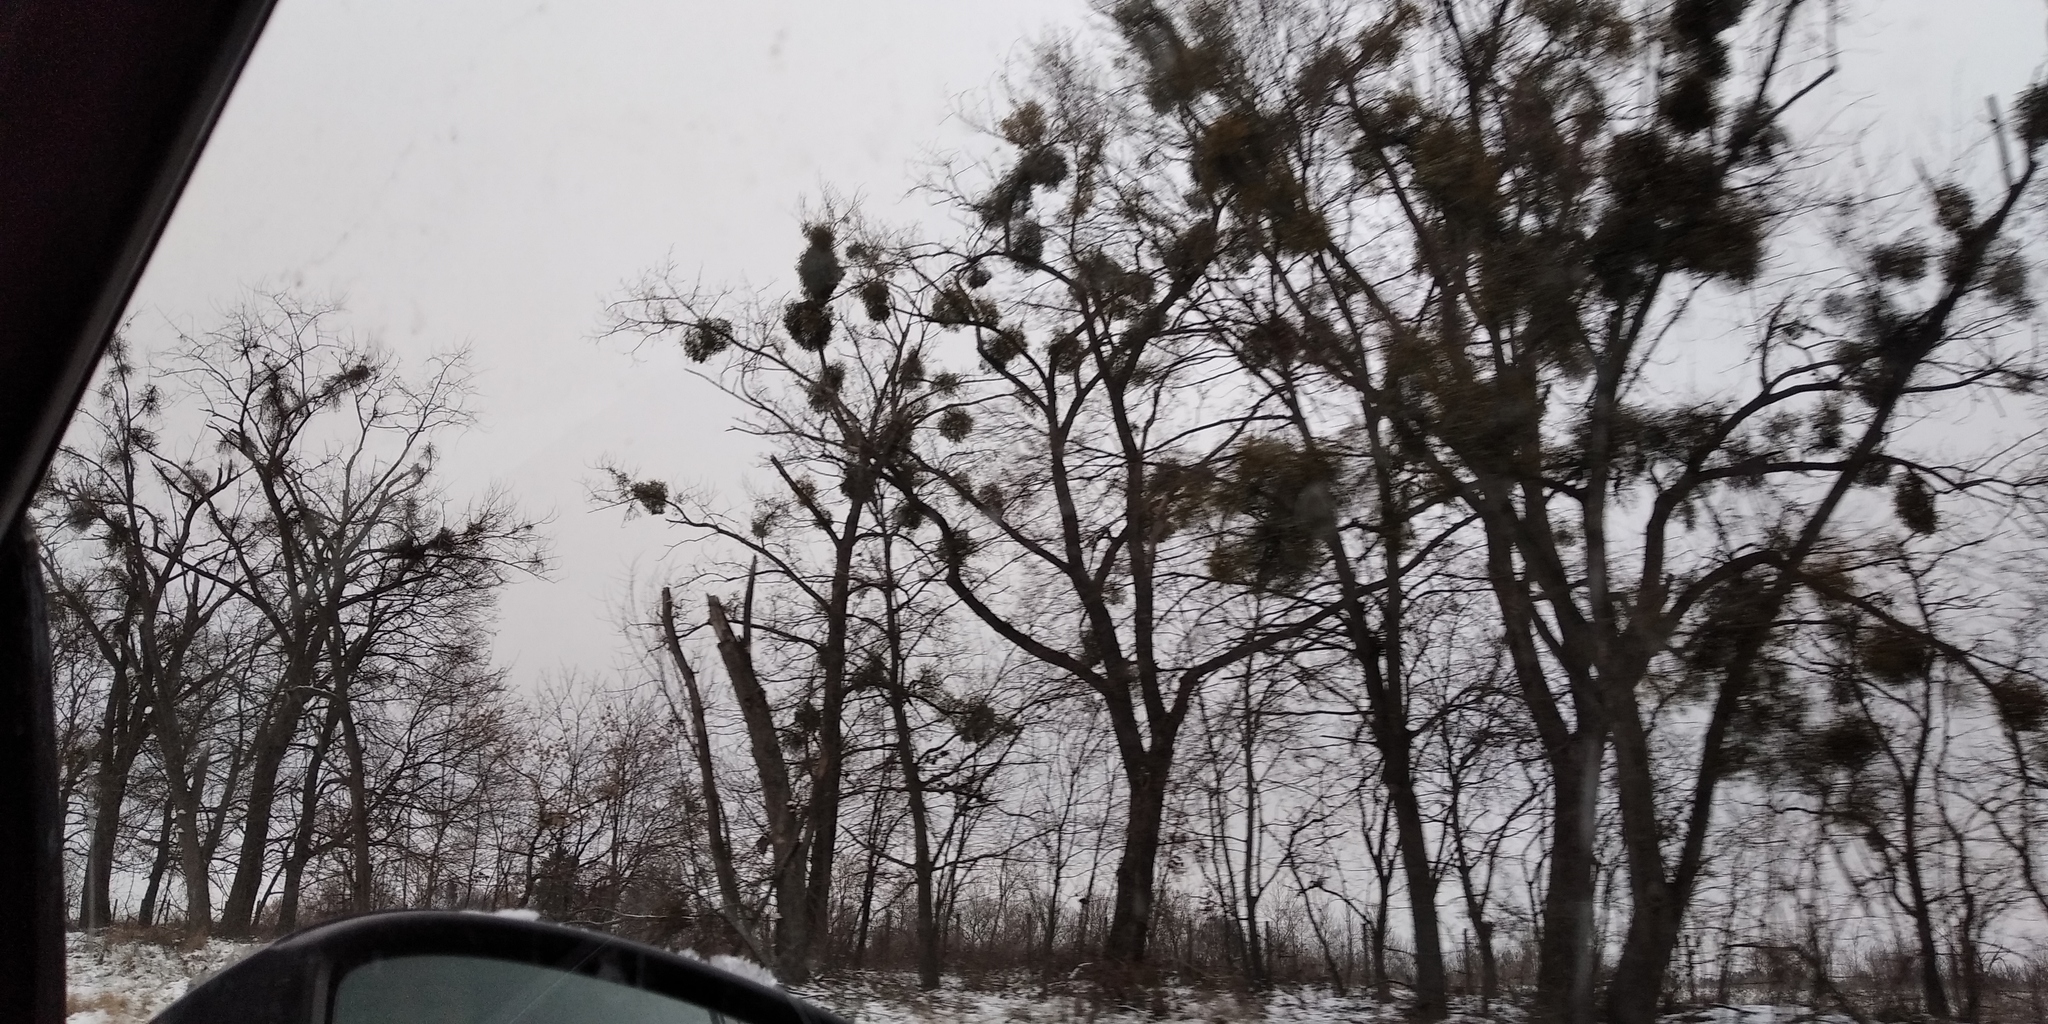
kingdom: Plantae
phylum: Tracheophyta
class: Magnoliopsida
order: Santalales
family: Viscaceae
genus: Viscum
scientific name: Viscum album
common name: Mistletoe
